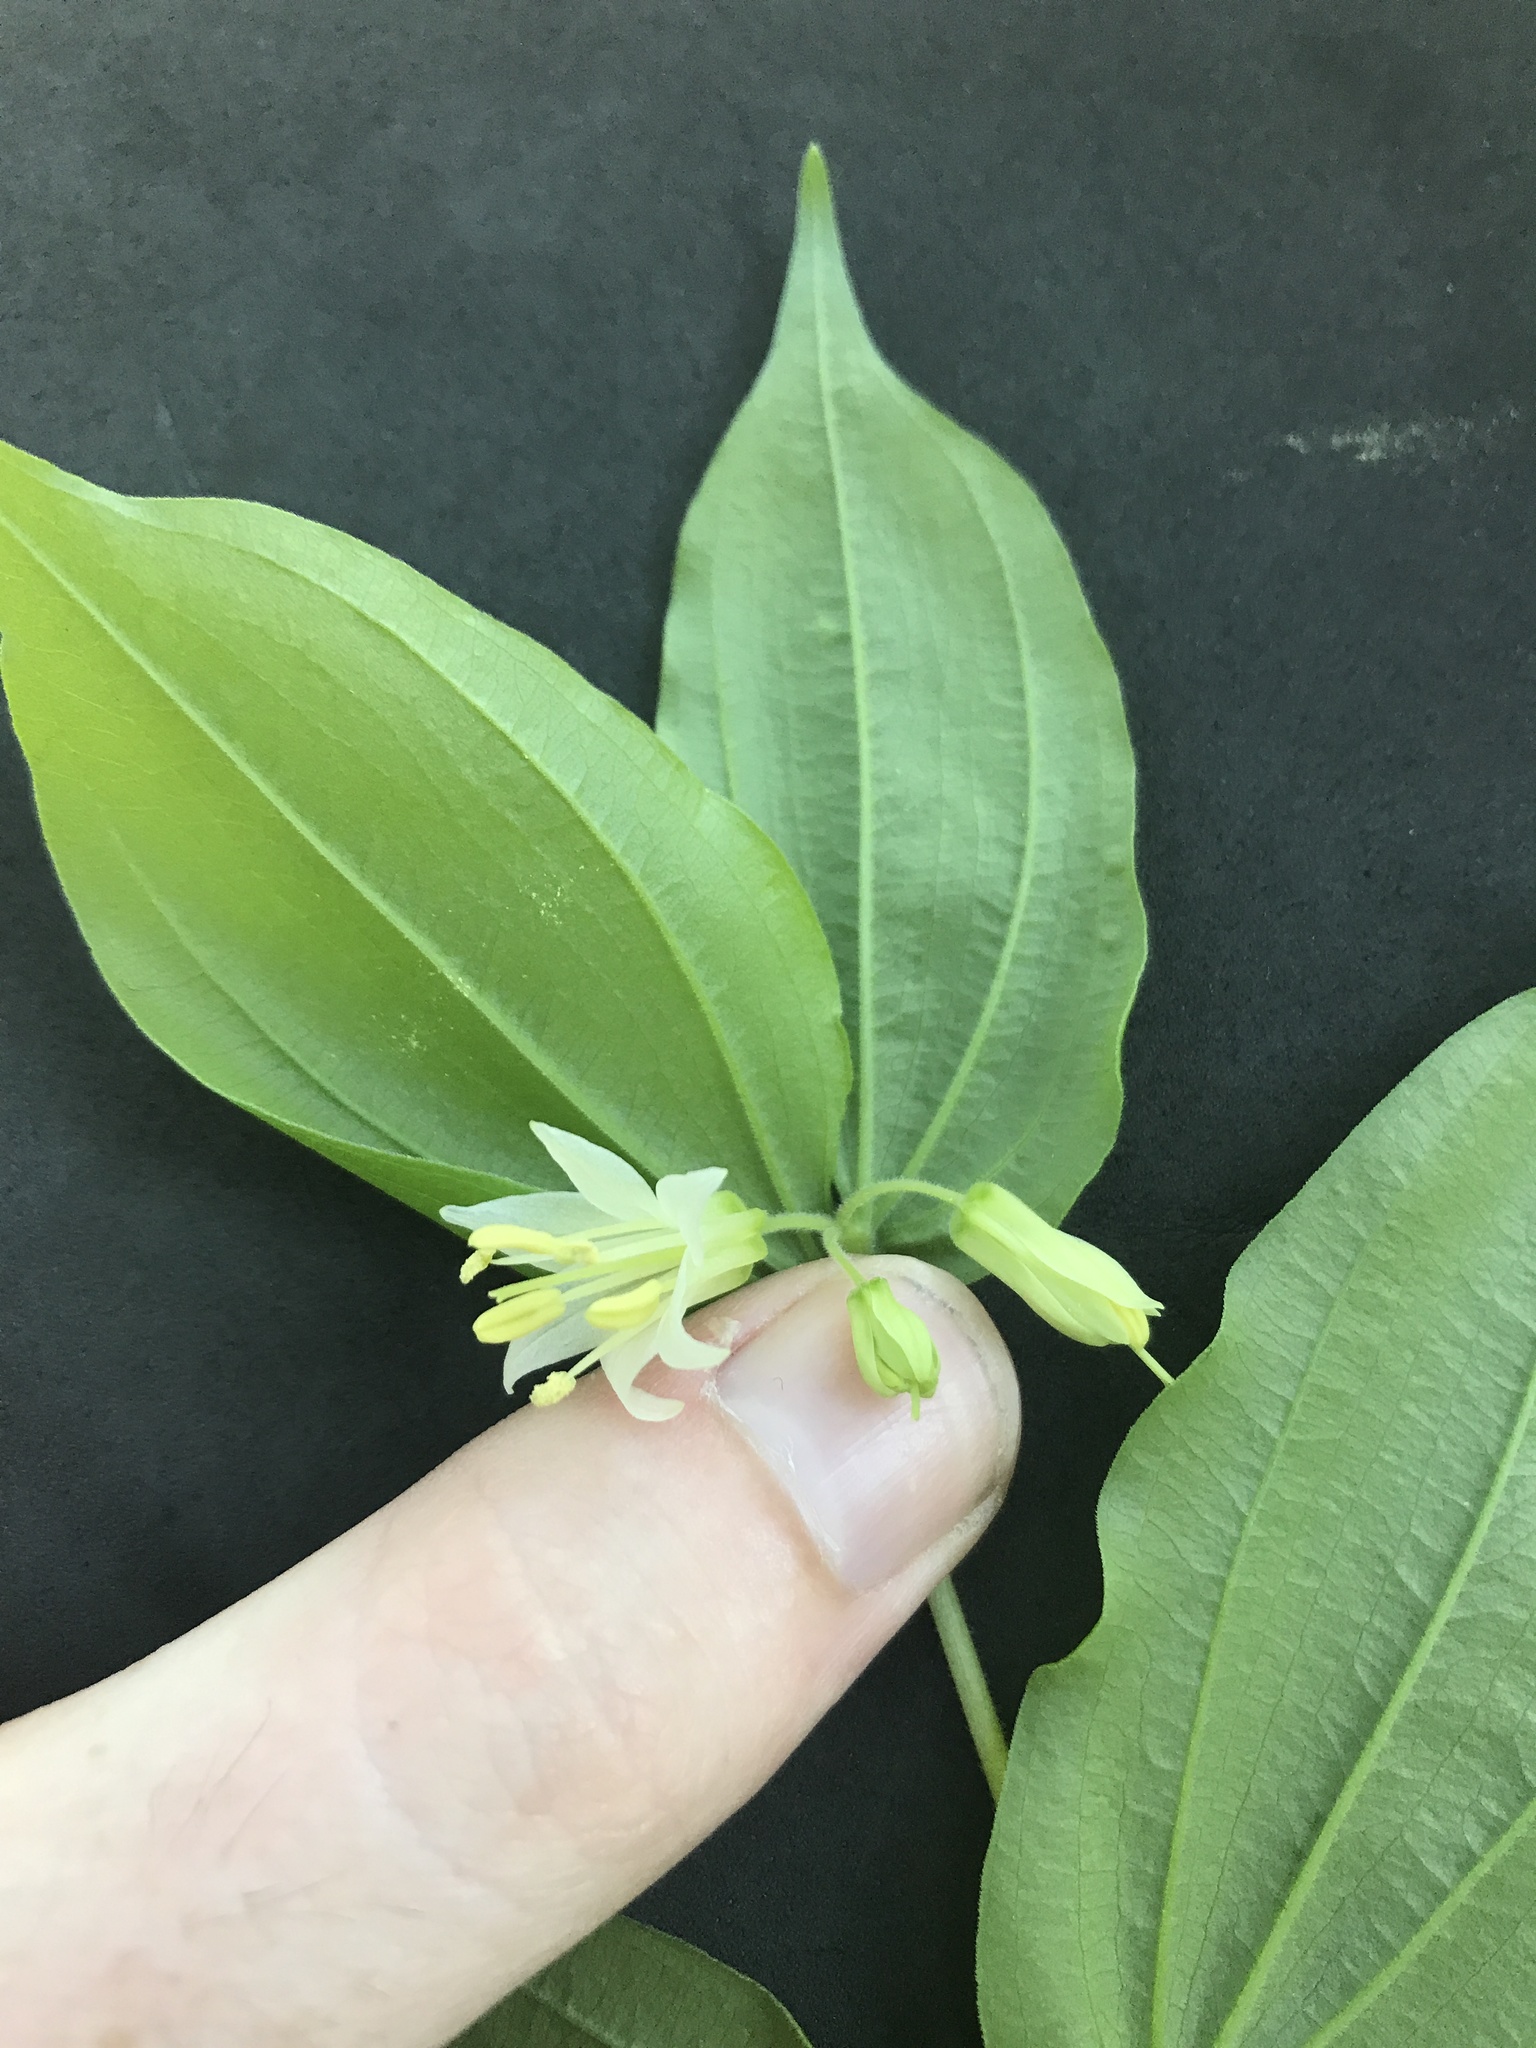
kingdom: Plantae
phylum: Tracheophyta
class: Liliopsida
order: Liliales
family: Liliaceae
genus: Prosartes
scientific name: Prosartes hookeri
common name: Fairy-bells
